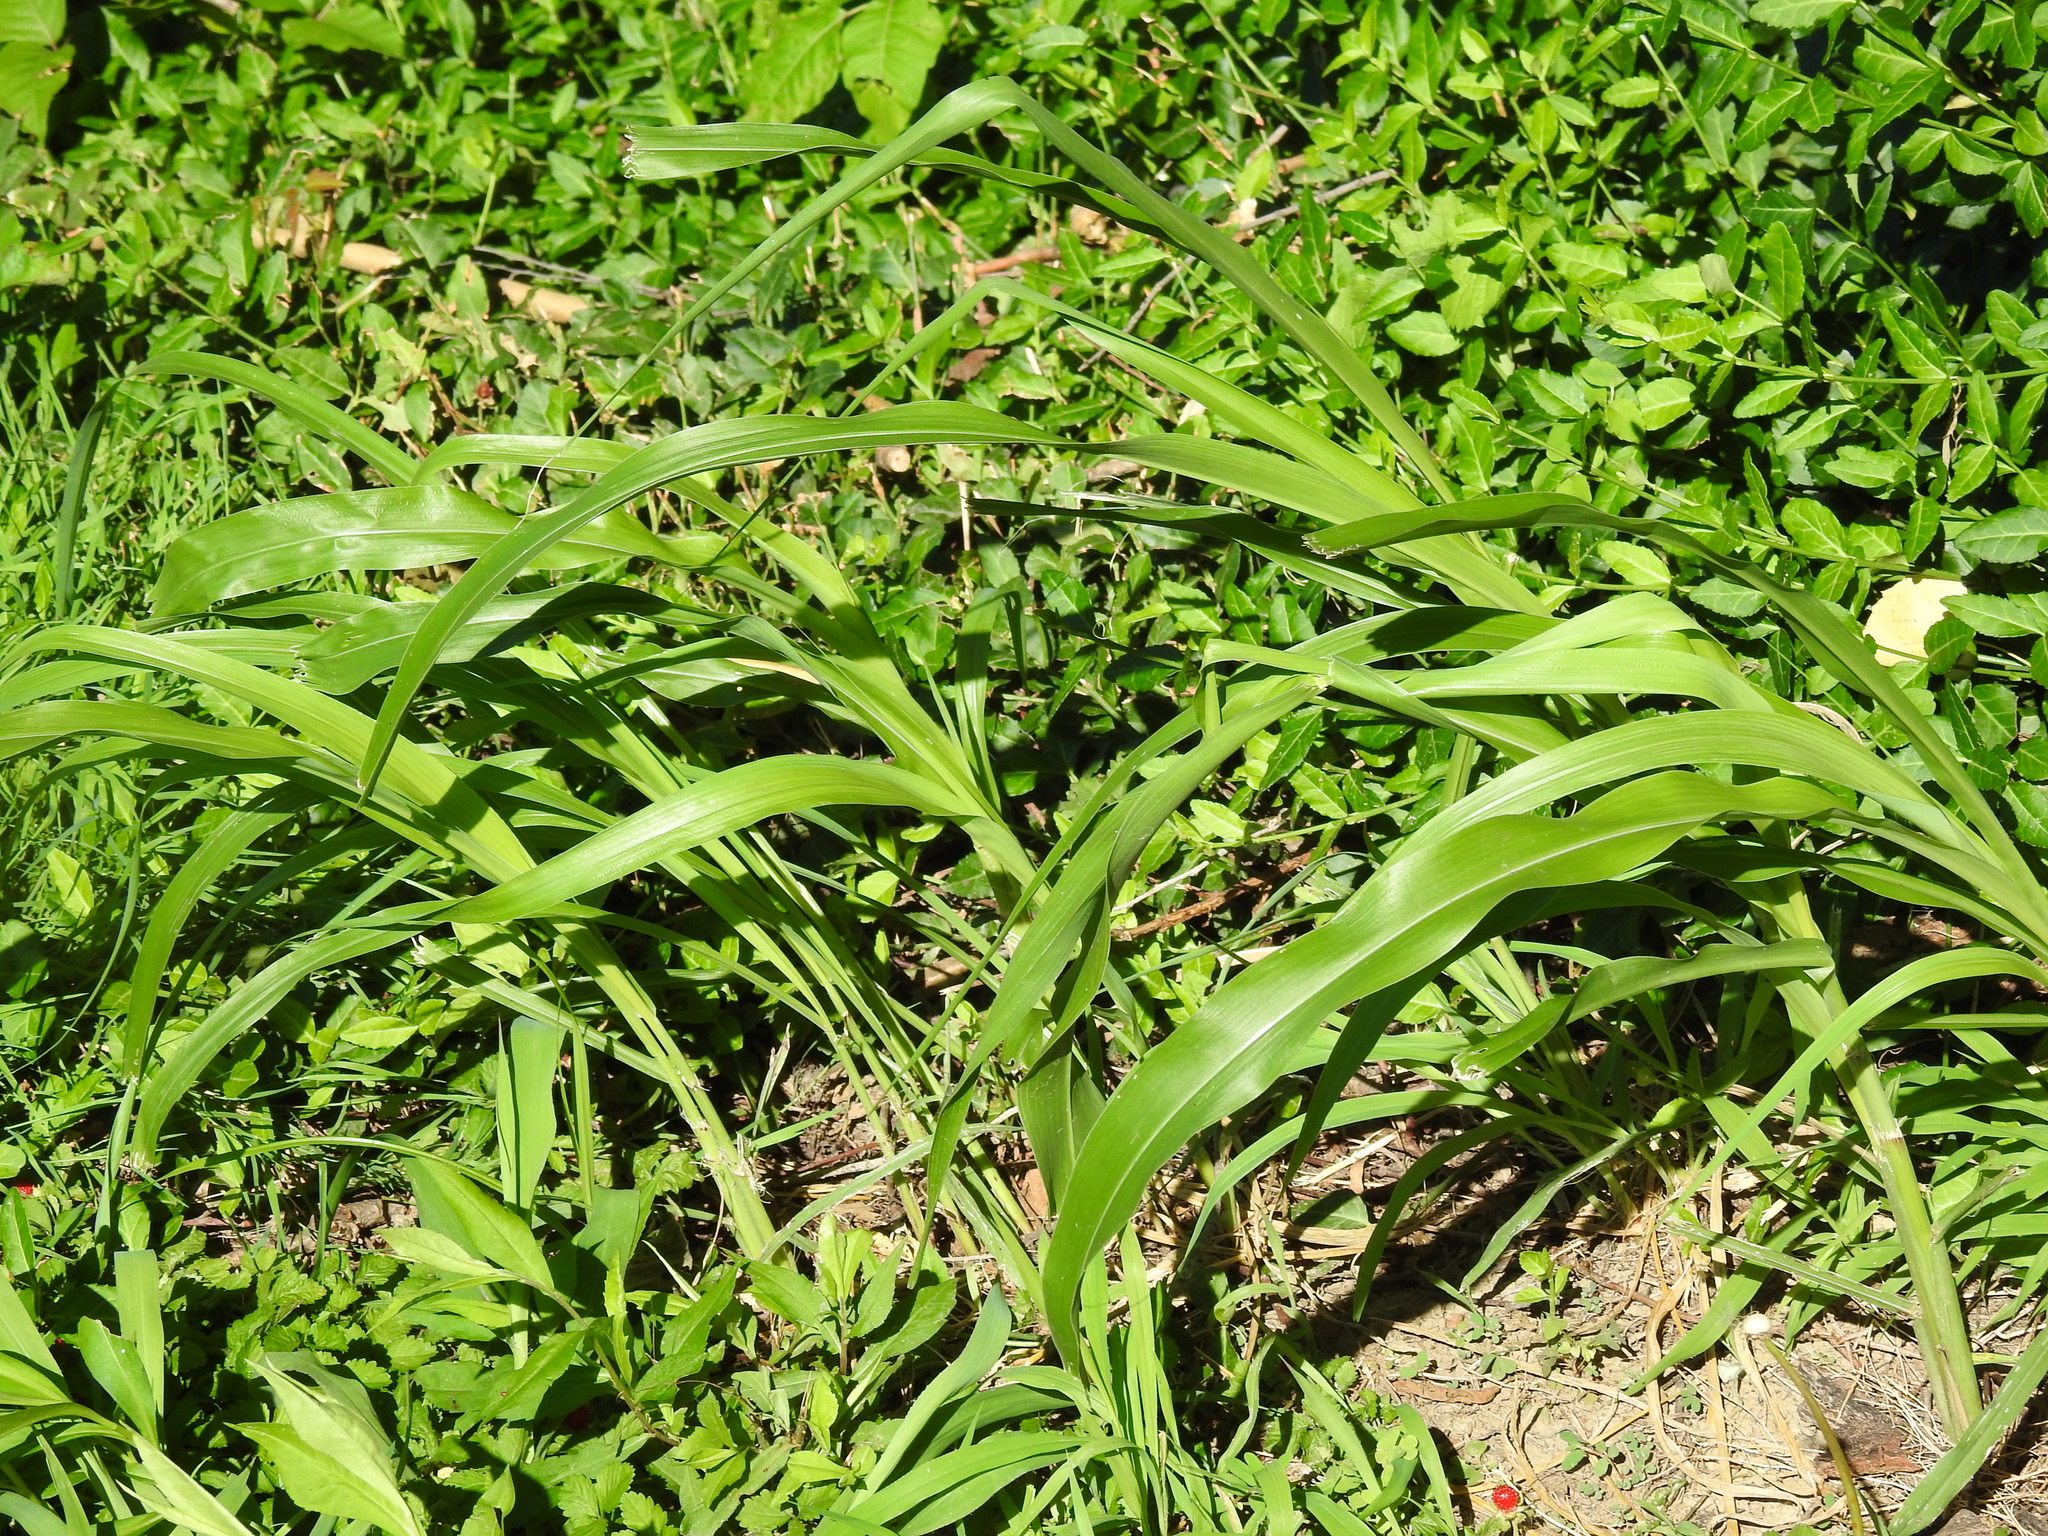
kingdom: Plantae
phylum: Tracheophyta
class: Liliopsida
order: Poales
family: Poaceae
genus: Sorghum
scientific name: Sorghum halepense
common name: Johnson-grass
